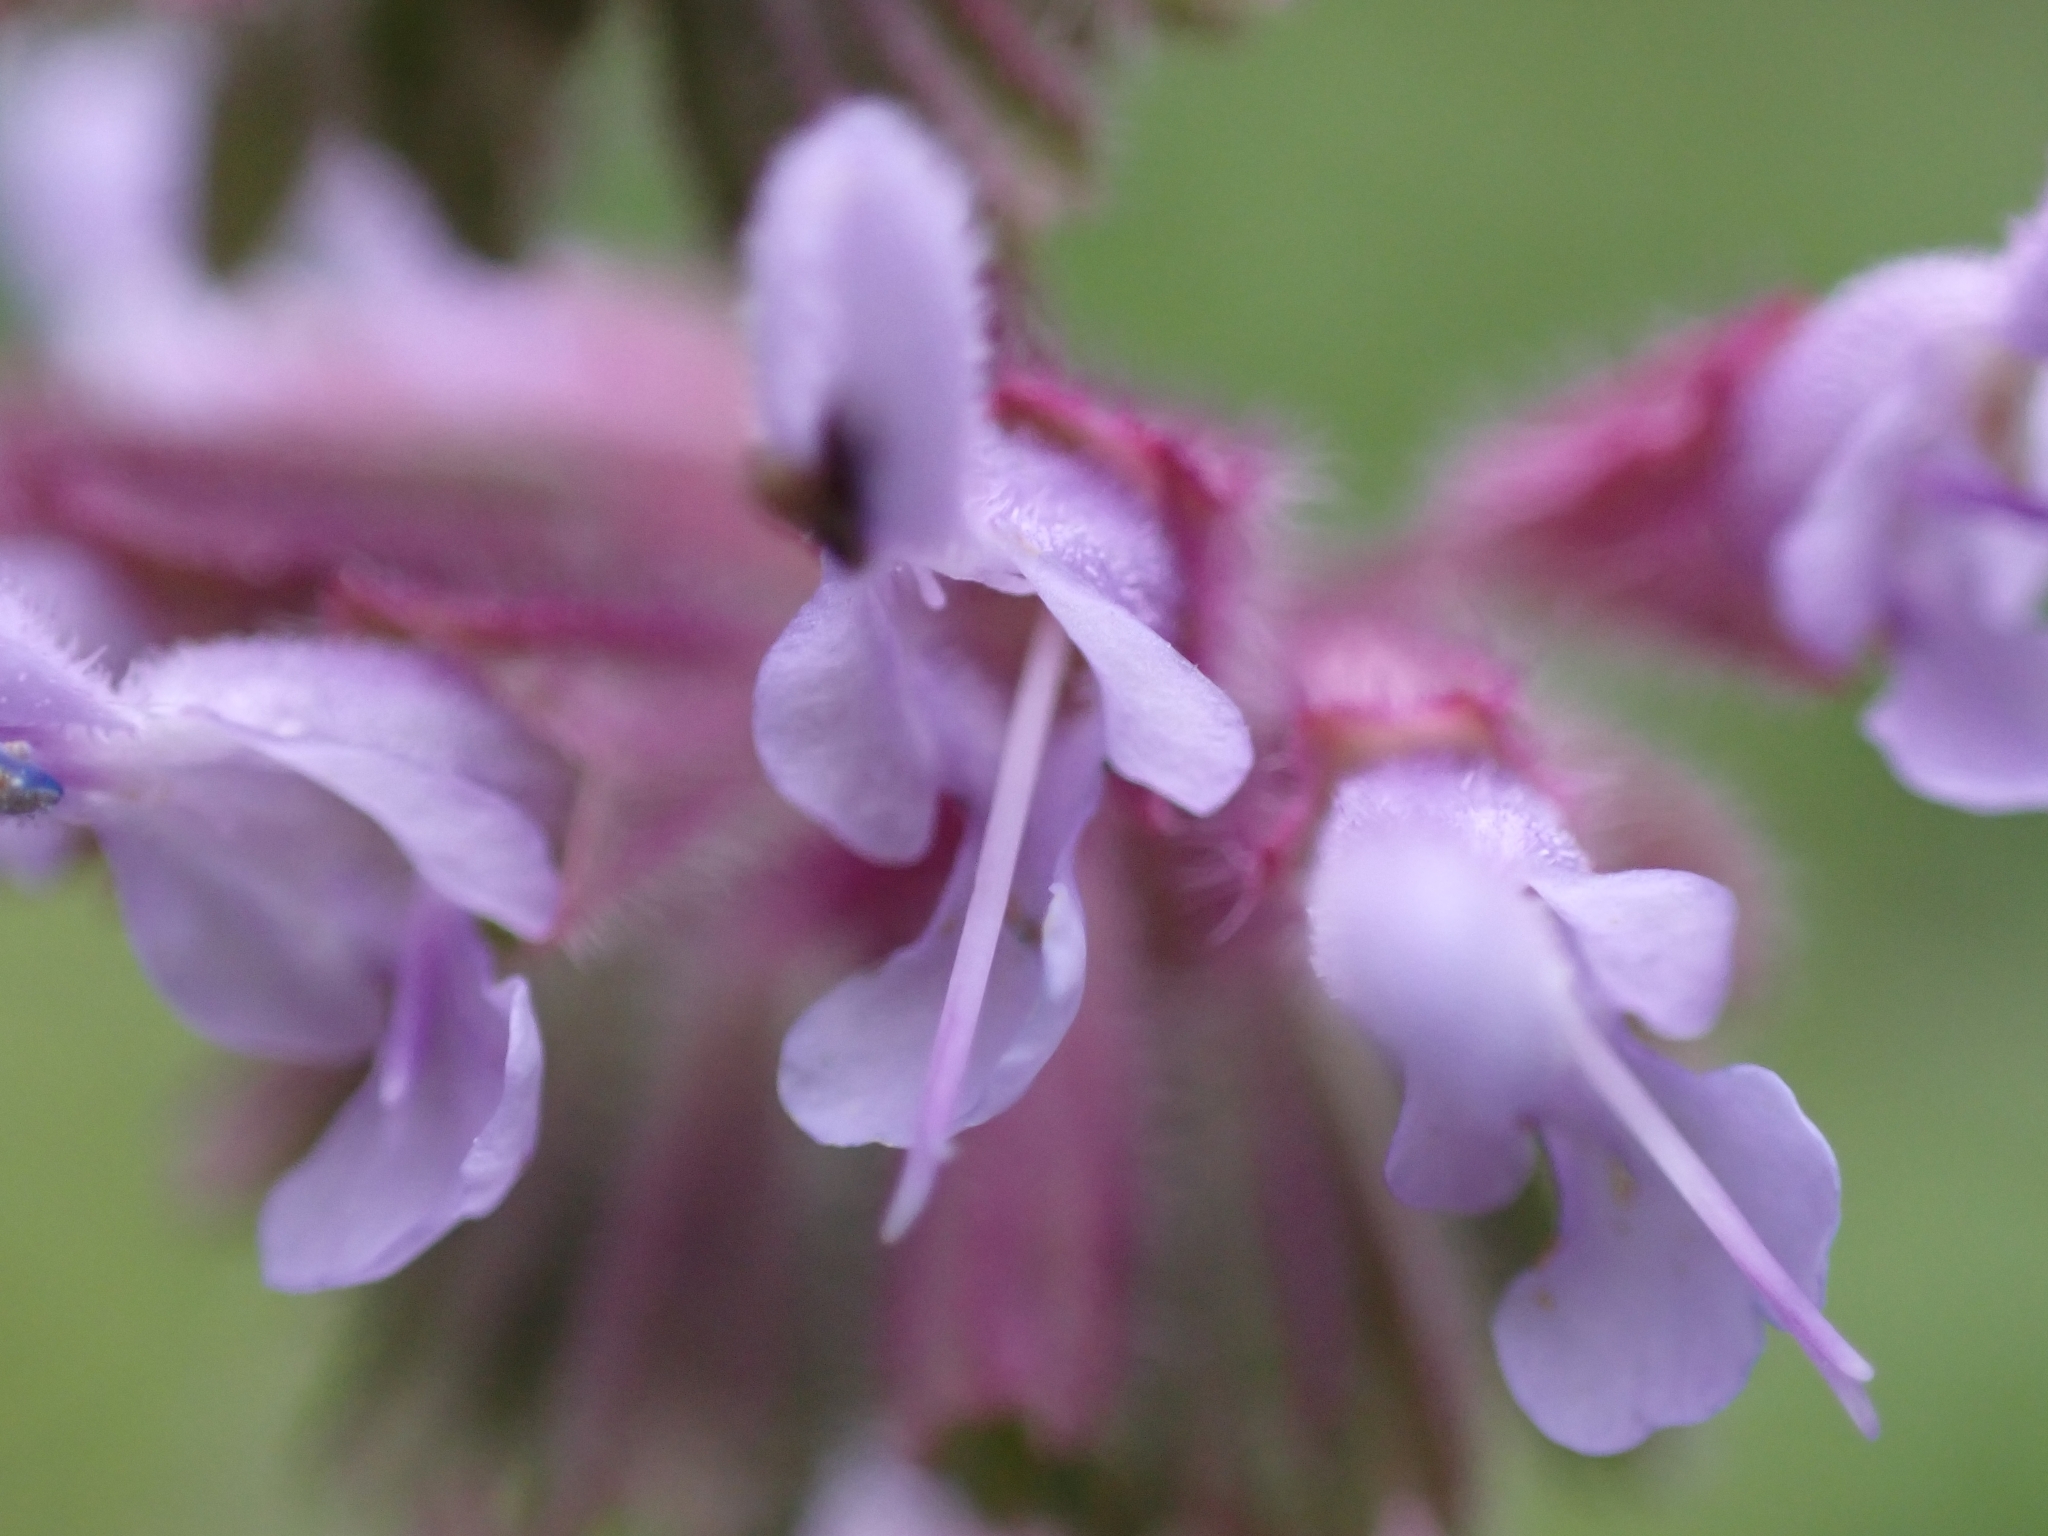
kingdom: Plantae
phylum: Tracheophyta
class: Magnoliopsida
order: Lamiales
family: Lamiaceae
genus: Salvia
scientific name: Salvia verticillata
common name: Whorled clary
